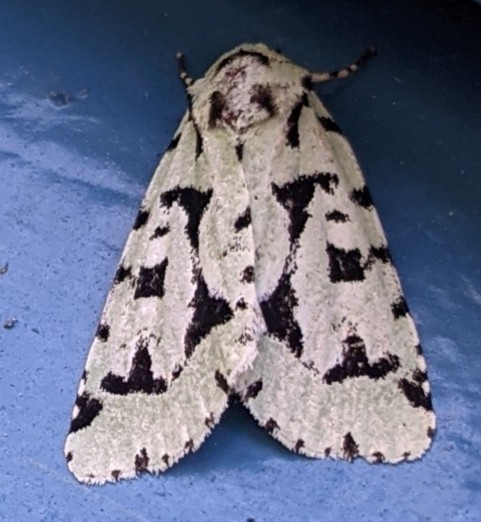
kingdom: Animalia
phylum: Arthropoda
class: Insecta
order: Lepidoptera
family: Noctuidae
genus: Acronicta
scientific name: Acronicta fallax
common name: Green marvel
